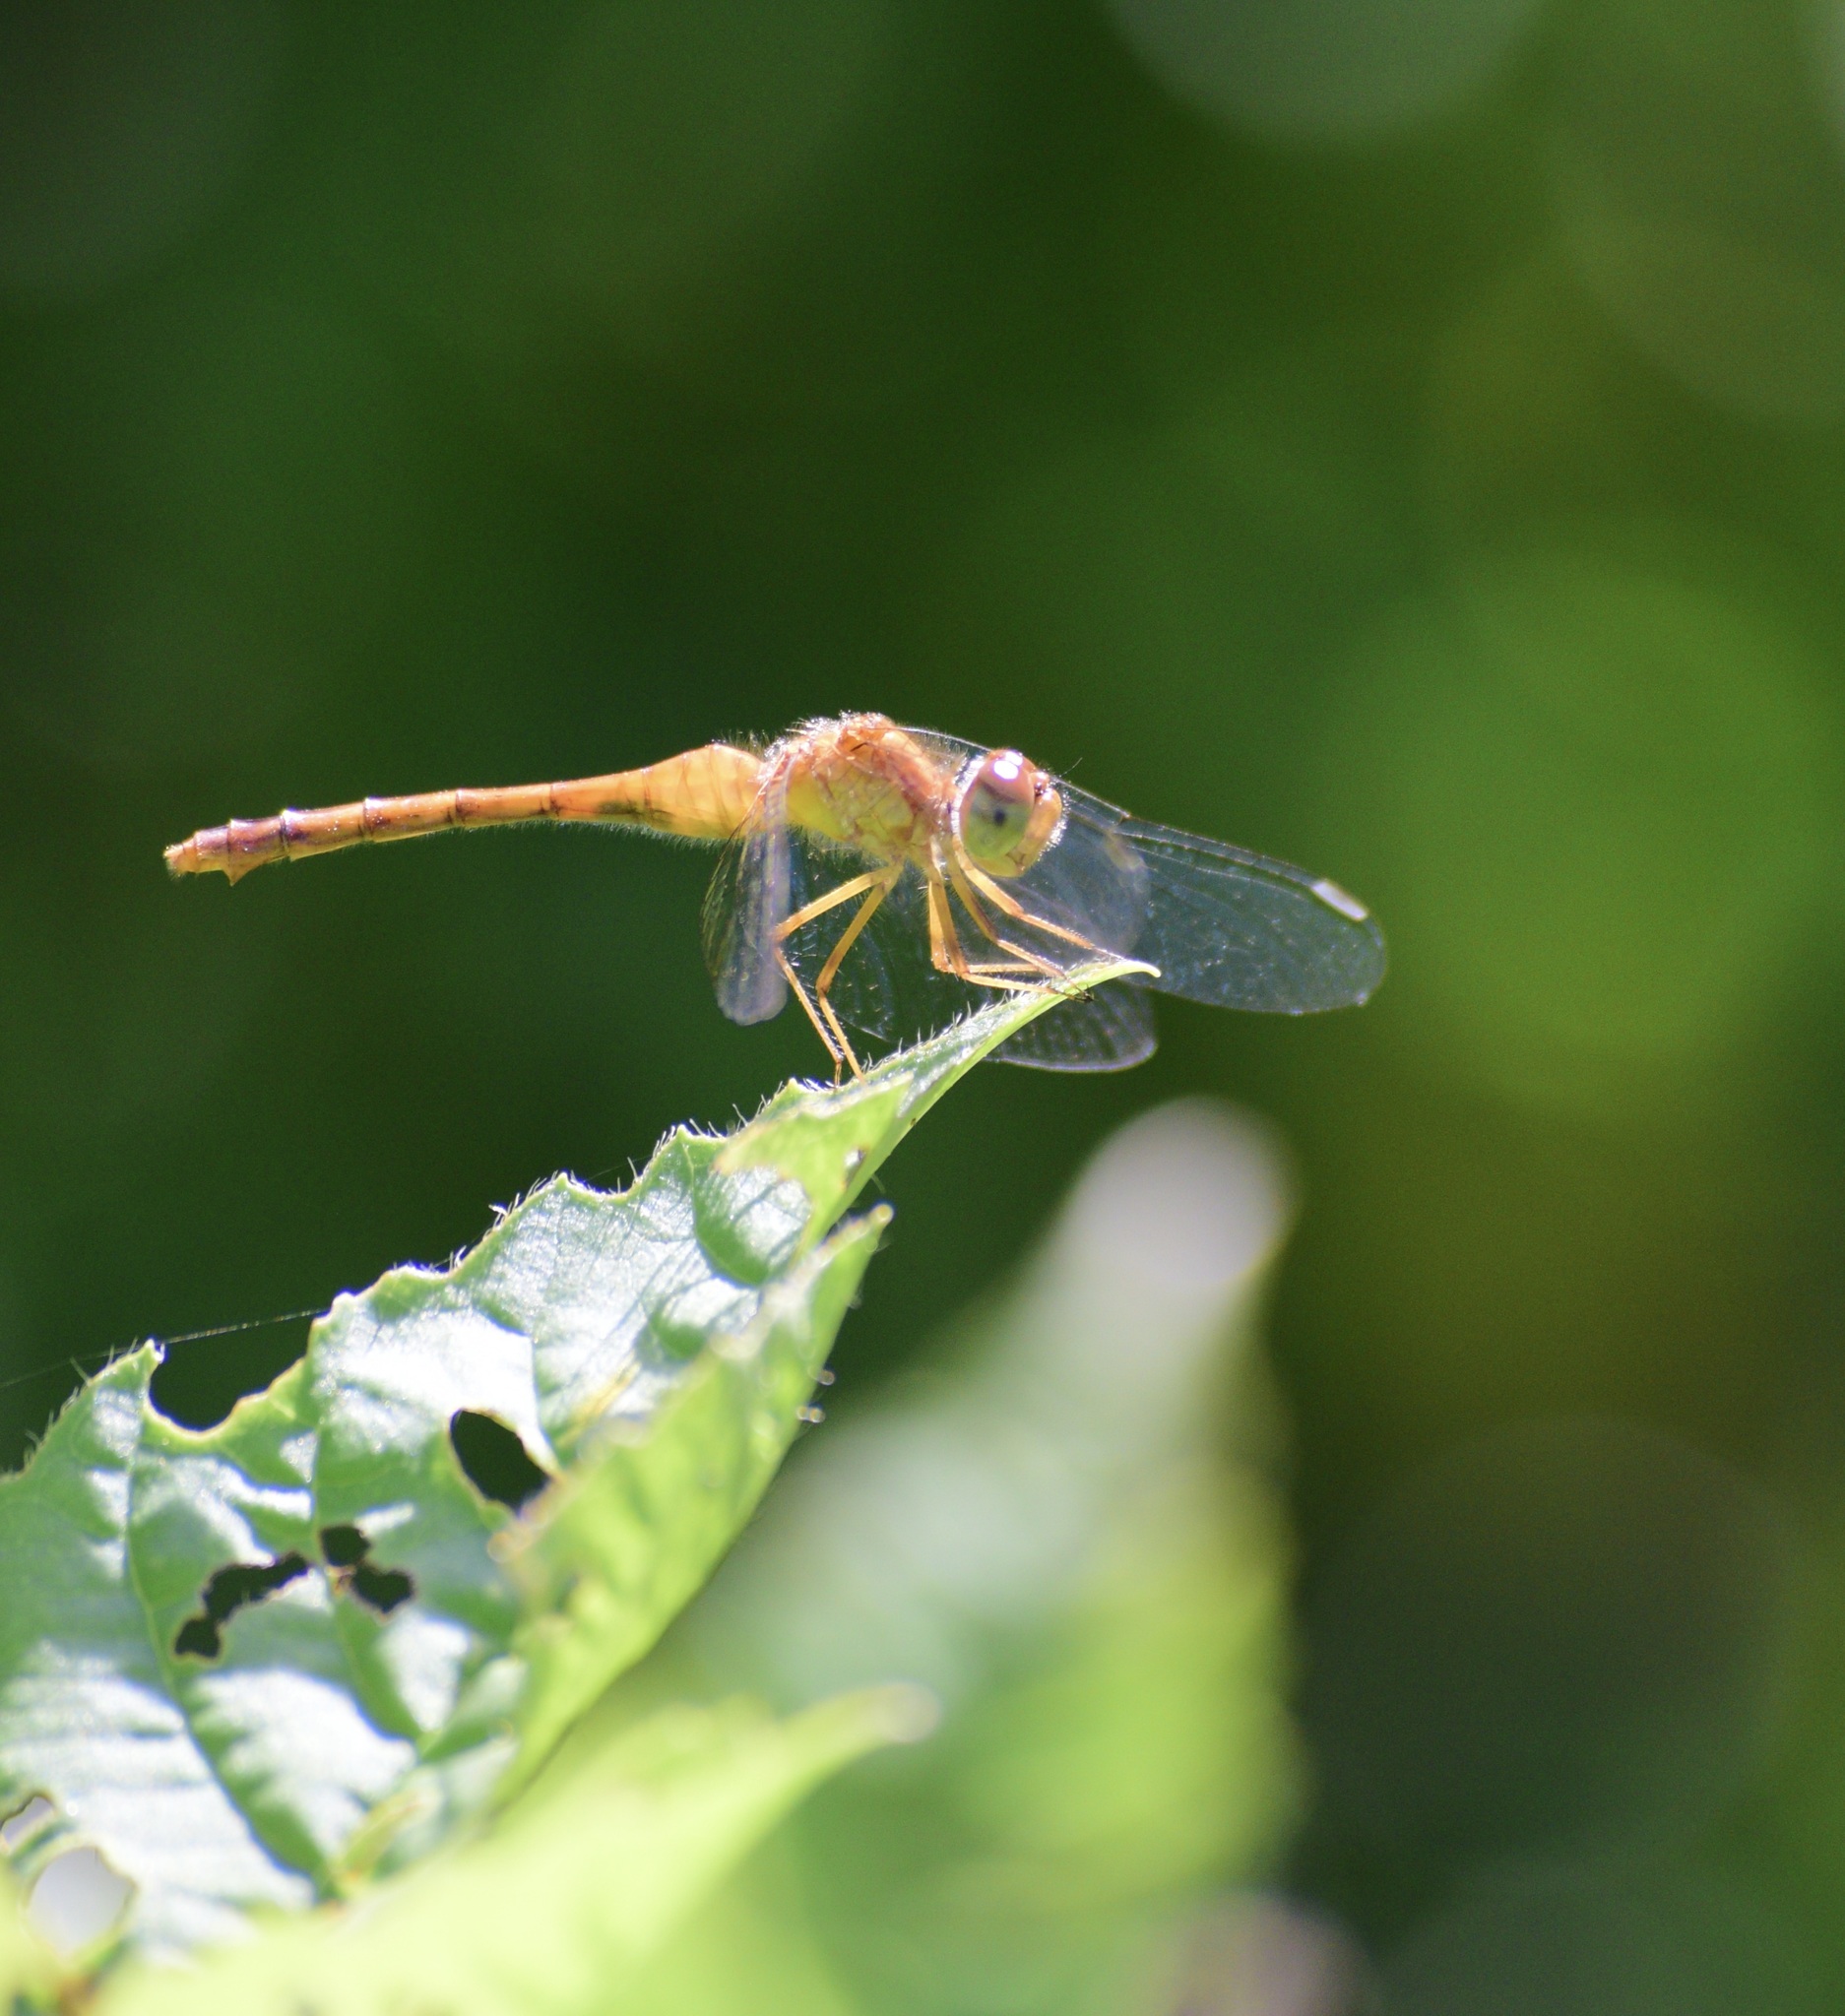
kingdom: Animalia
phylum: Arthropoda
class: Insecta
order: Odonata
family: Libellulidae
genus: Sympetrum
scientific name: Sympetrum vicinum
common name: Autumn meadowhawk
